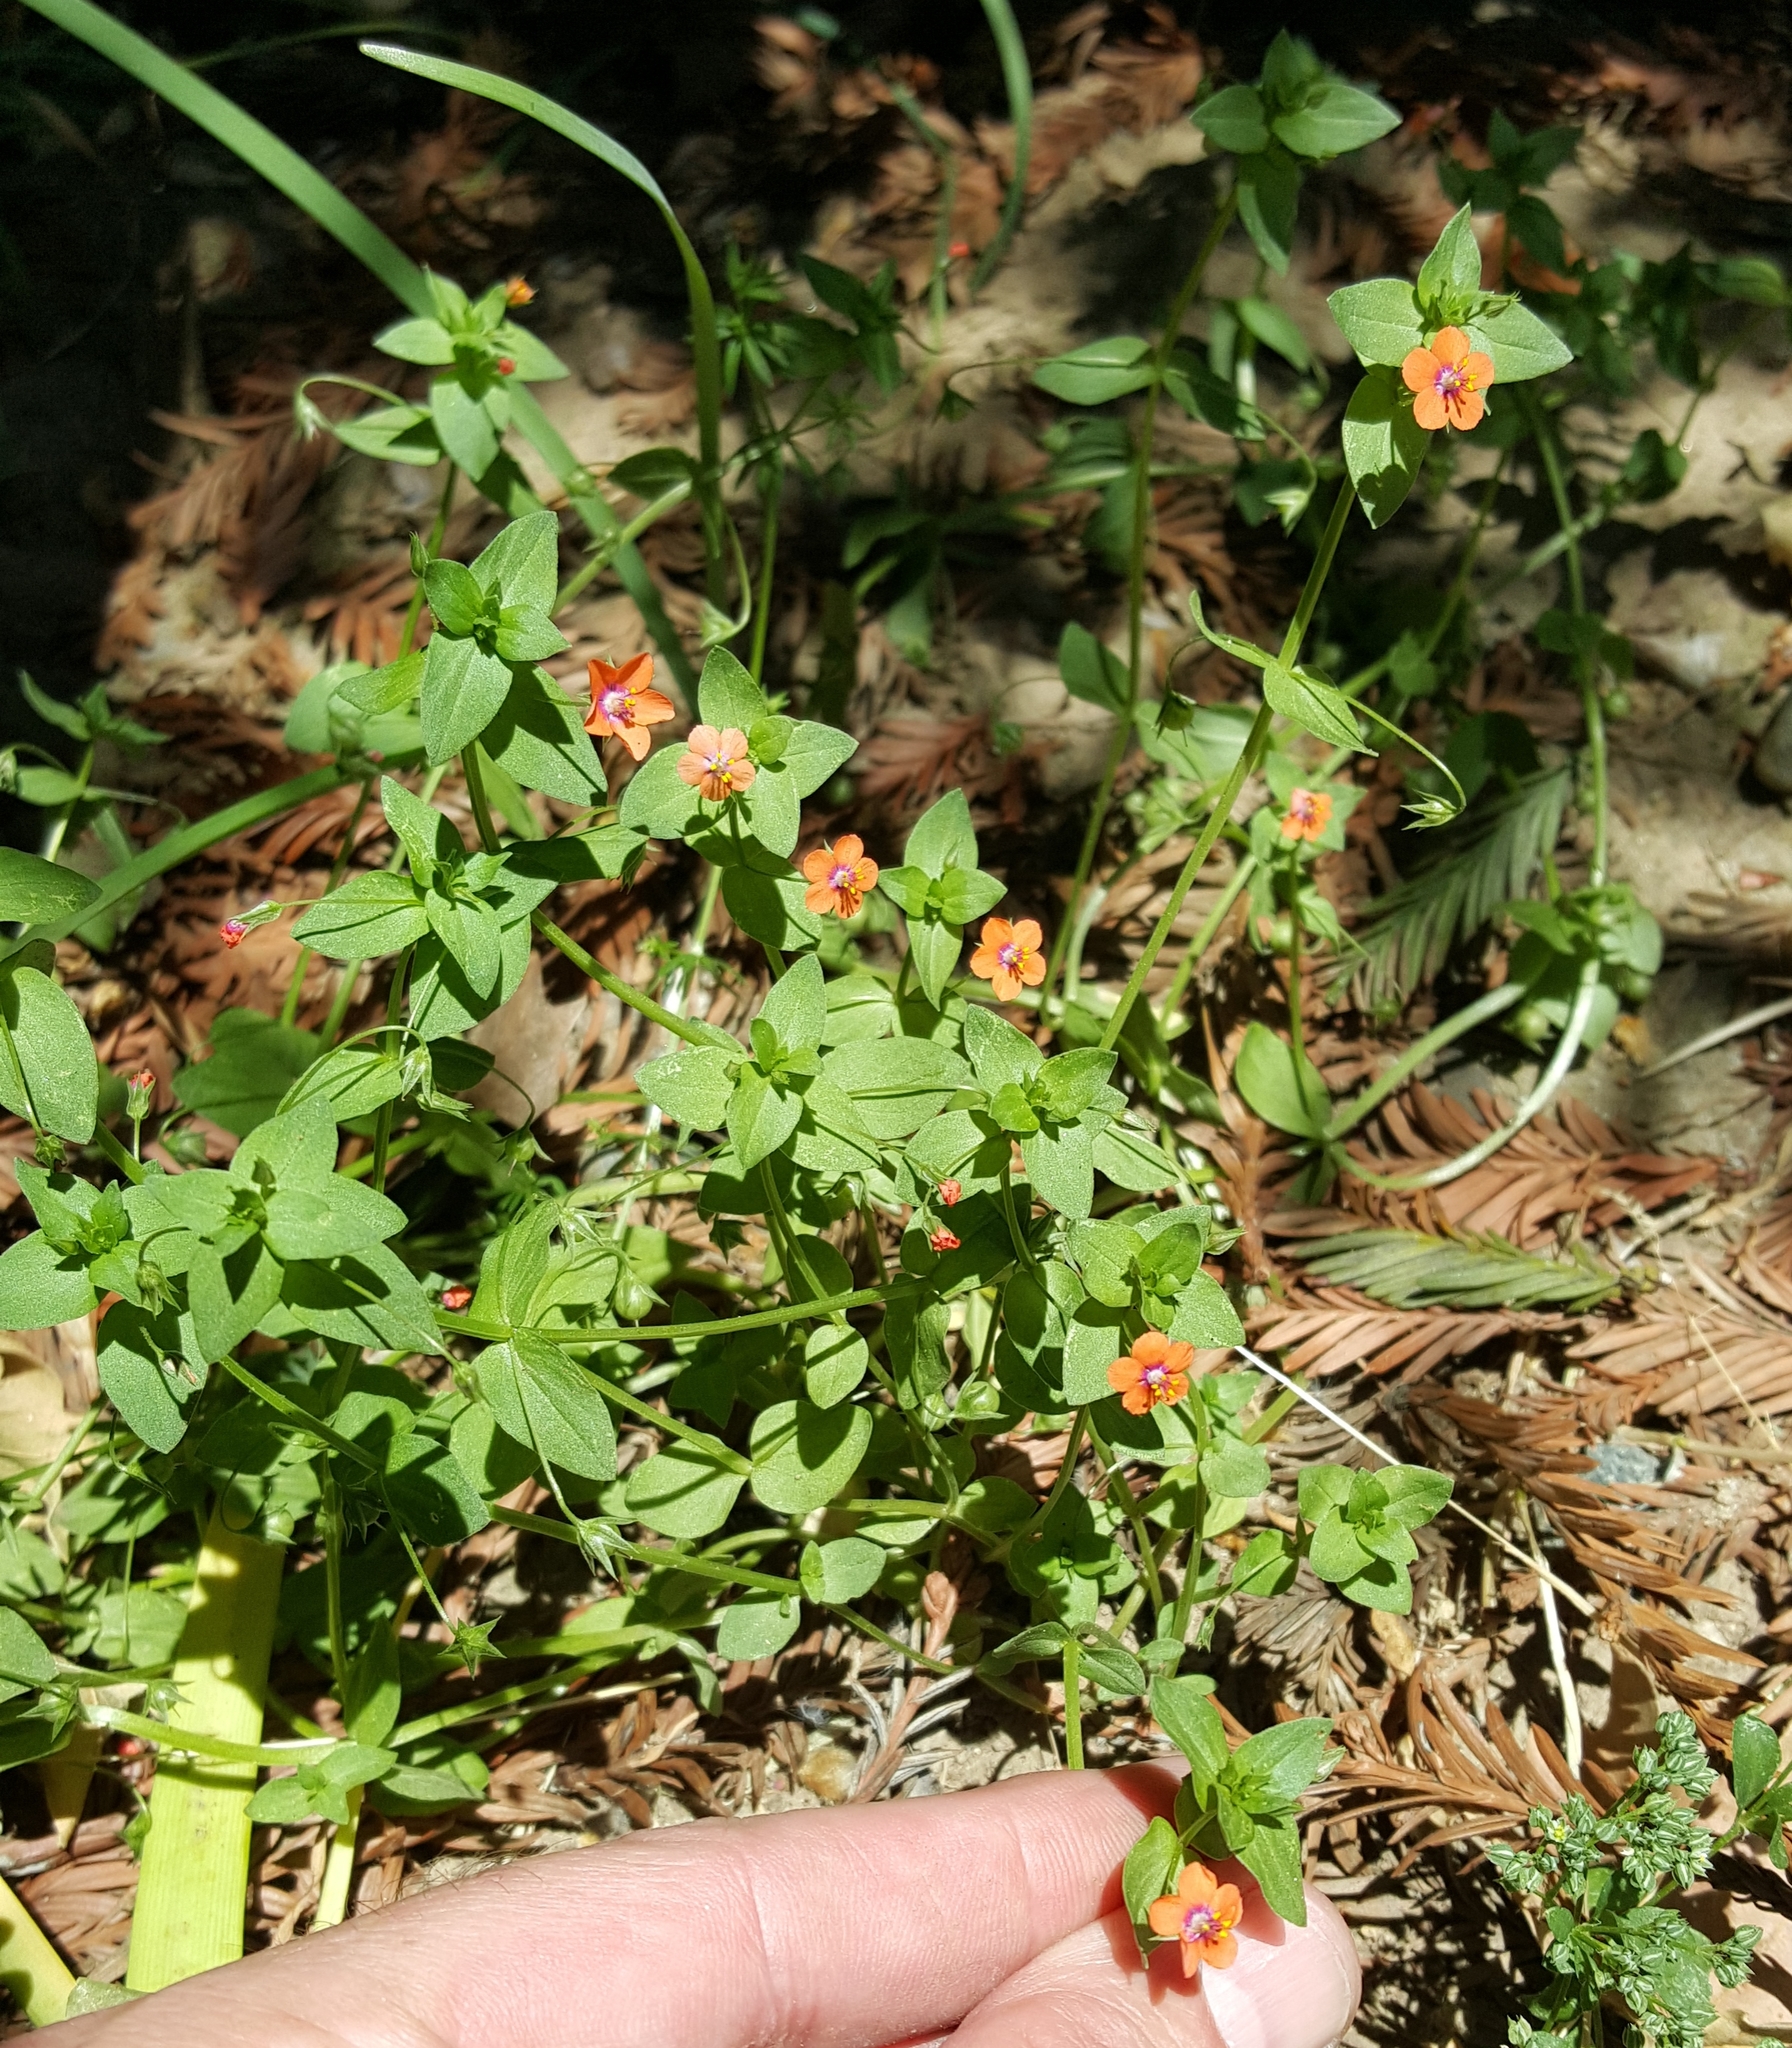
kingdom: Plantae
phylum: Tracheophyta
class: Magnoliopsida
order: Ericales
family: Primulaceae
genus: Lysimachia
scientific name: Lysimachia arvensis
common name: Scarlet pimpernel
